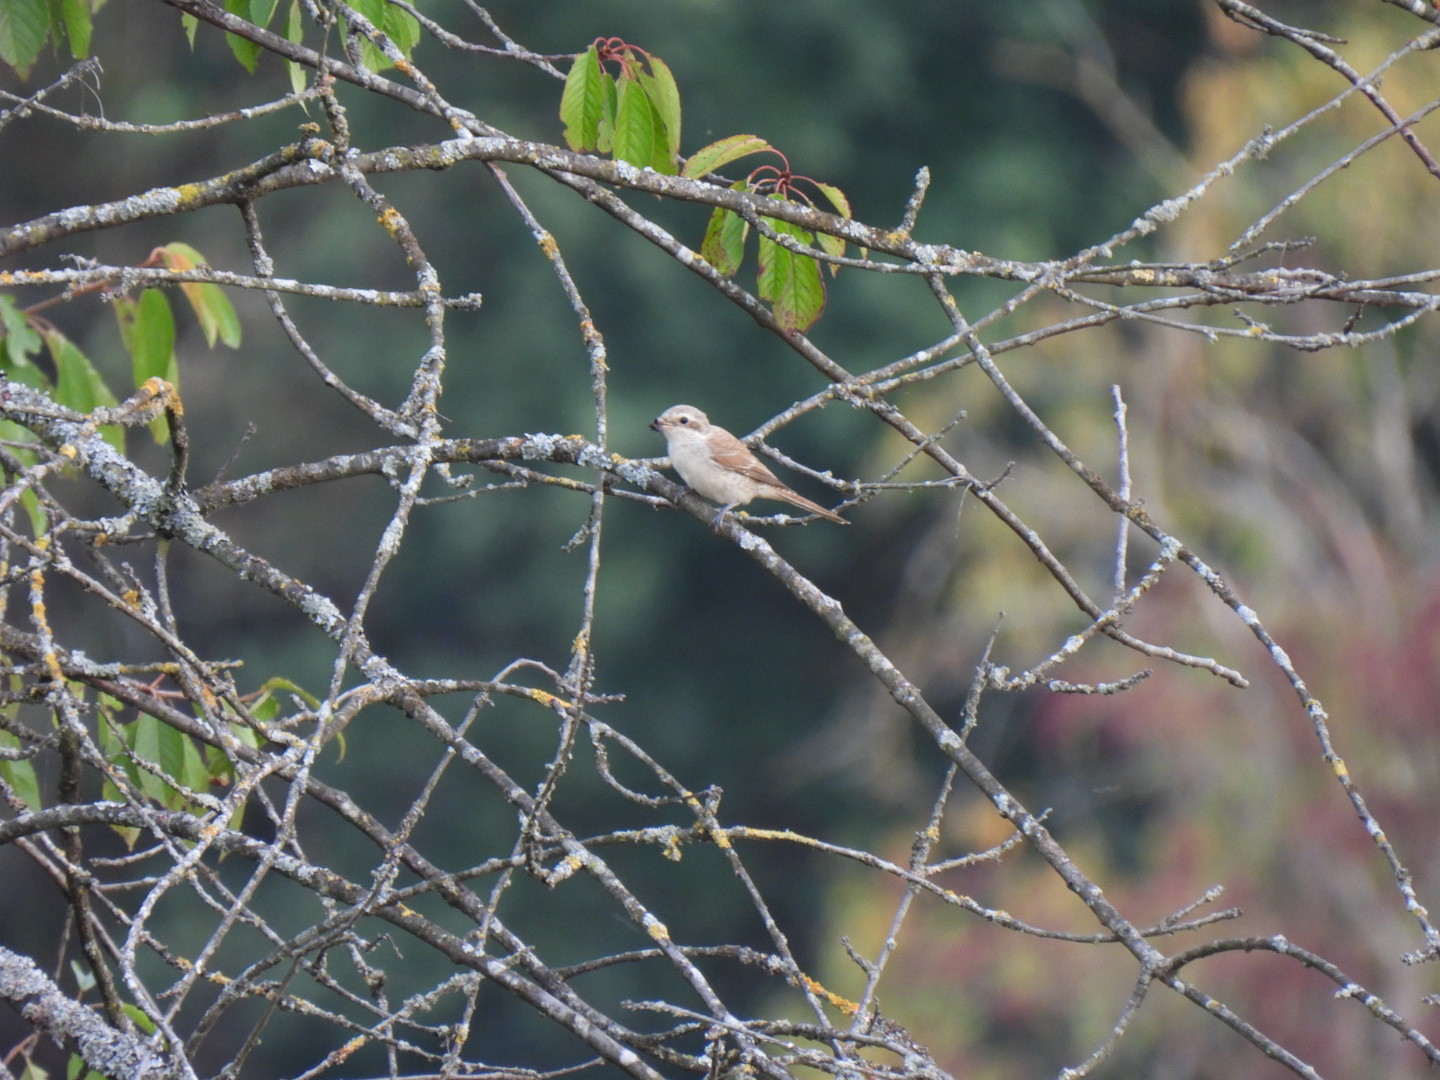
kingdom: Animalia
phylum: Chordata
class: Aves
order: Passeriformes
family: Laniidae
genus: Lanius
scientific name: Lanius collurio
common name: Red-backed shrike
